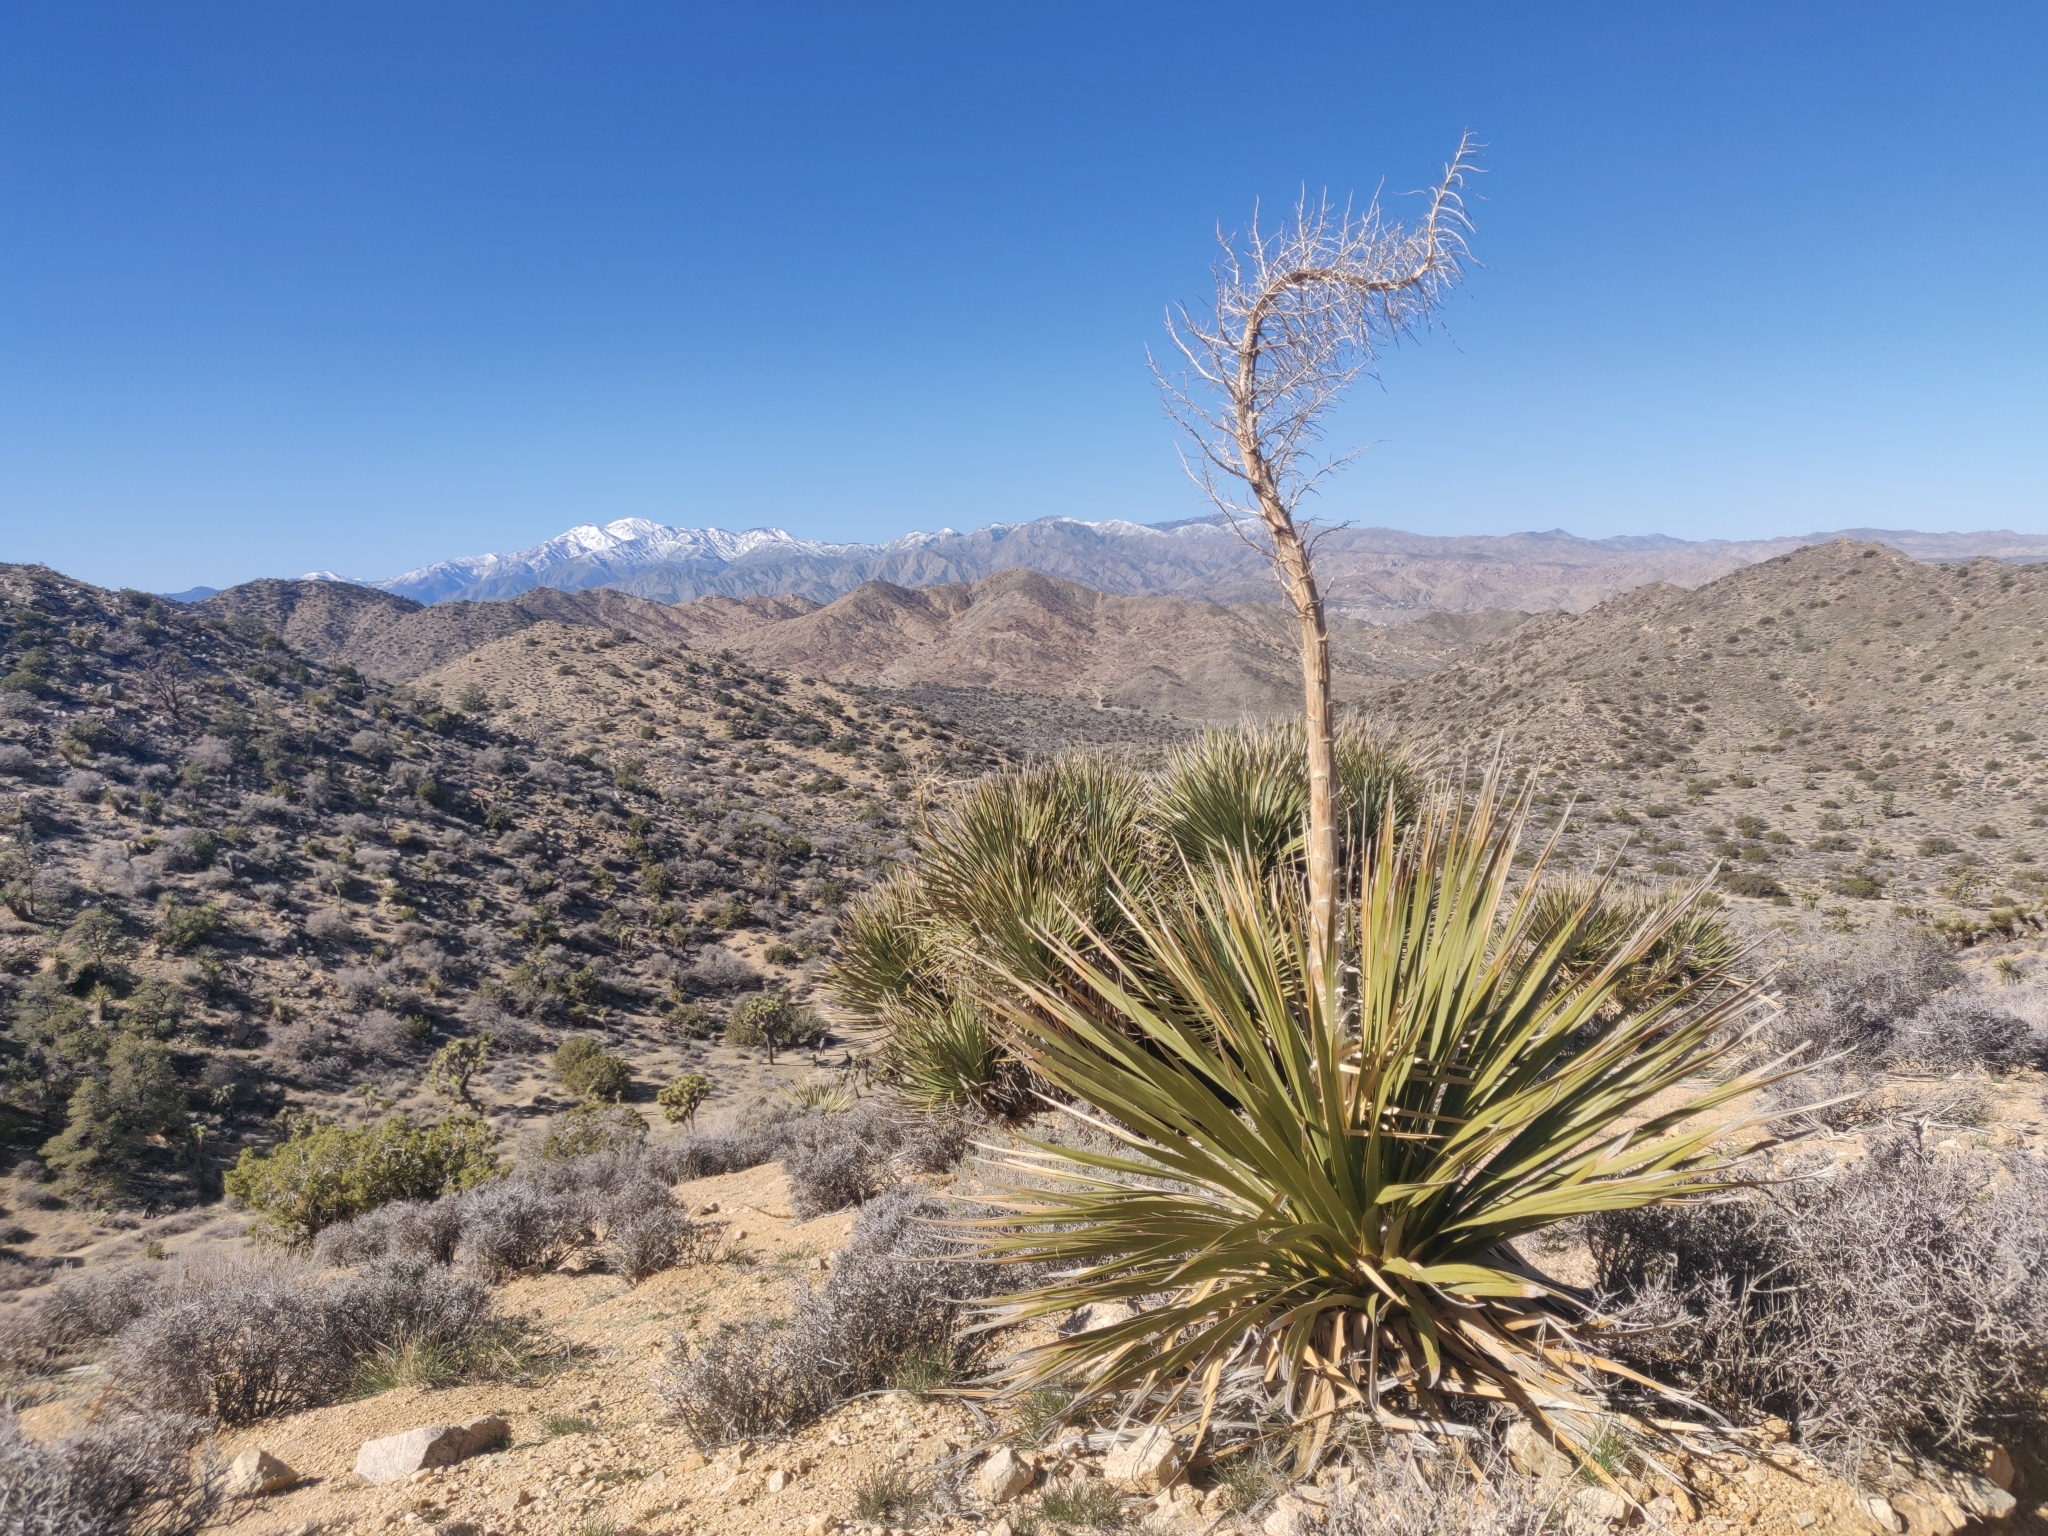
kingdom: Plantae
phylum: Tracheophyta
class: Liliopsida
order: Asparagales
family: Asparagaceae
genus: Nolina
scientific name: Nolina parryi
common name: Parry nolina
